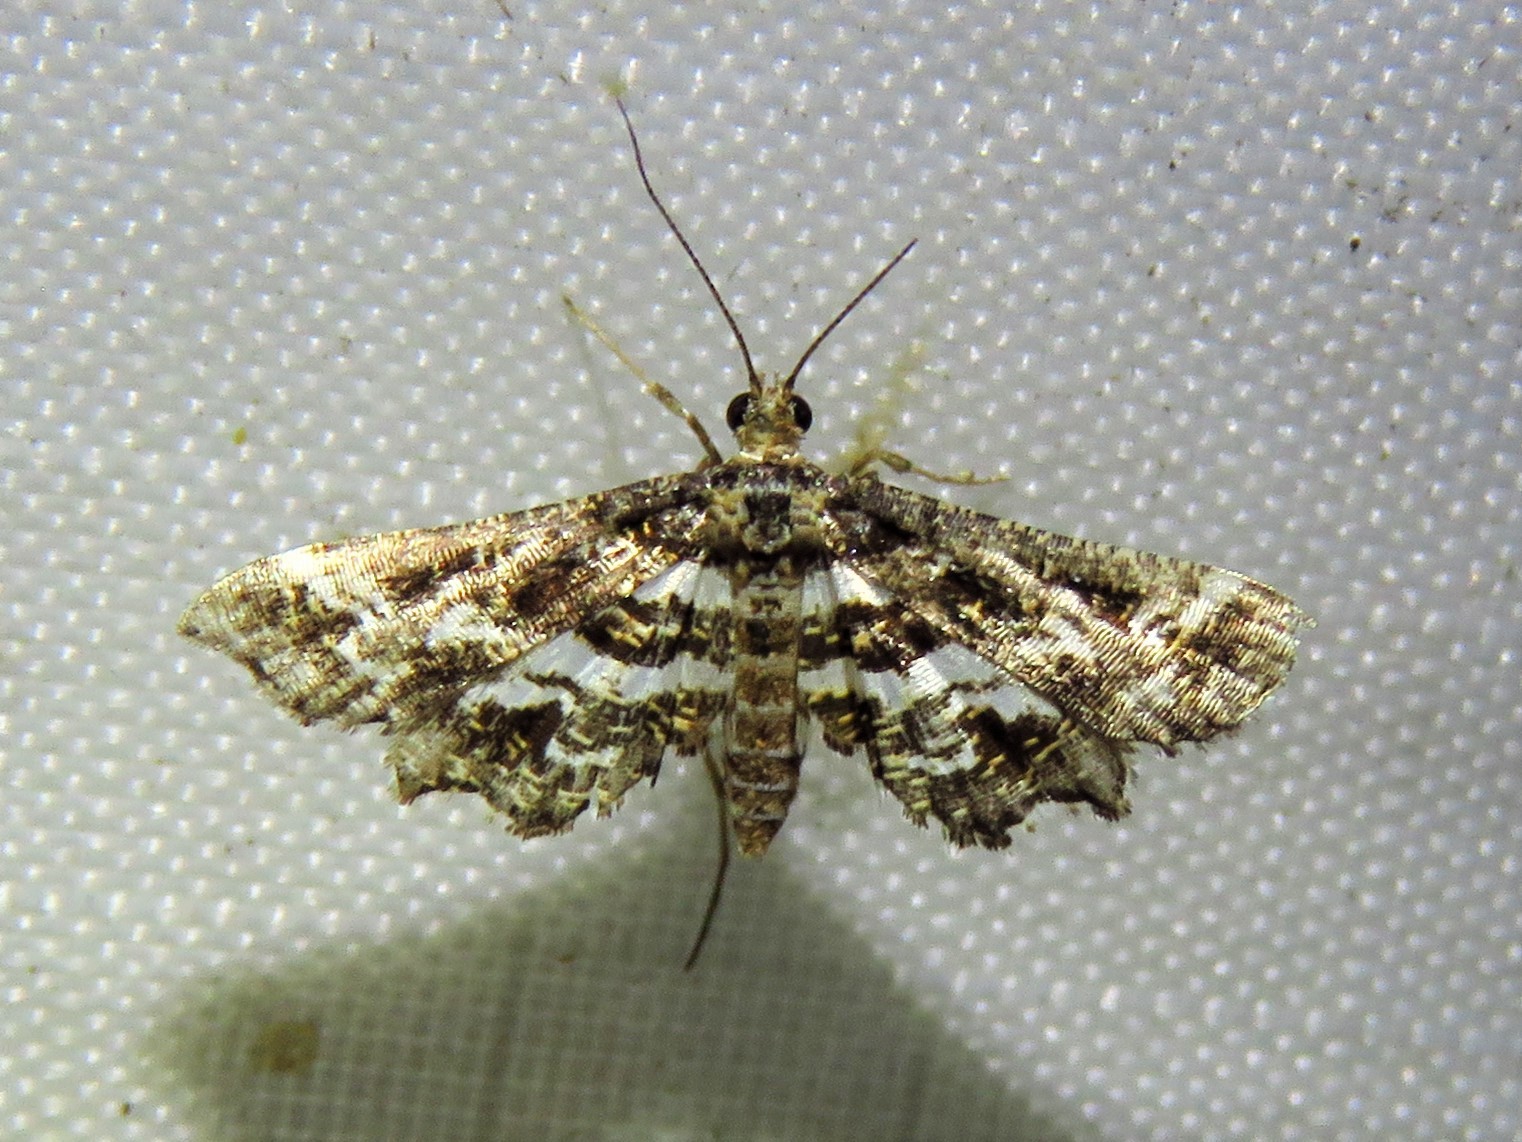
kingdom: Animalia
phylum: Arthropoda
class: Insecta
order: Lepidoptera
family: Crambidae
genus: Diasemiopsis
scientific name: Diasemiopsis ramburialis
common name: Vagrant china-mark
